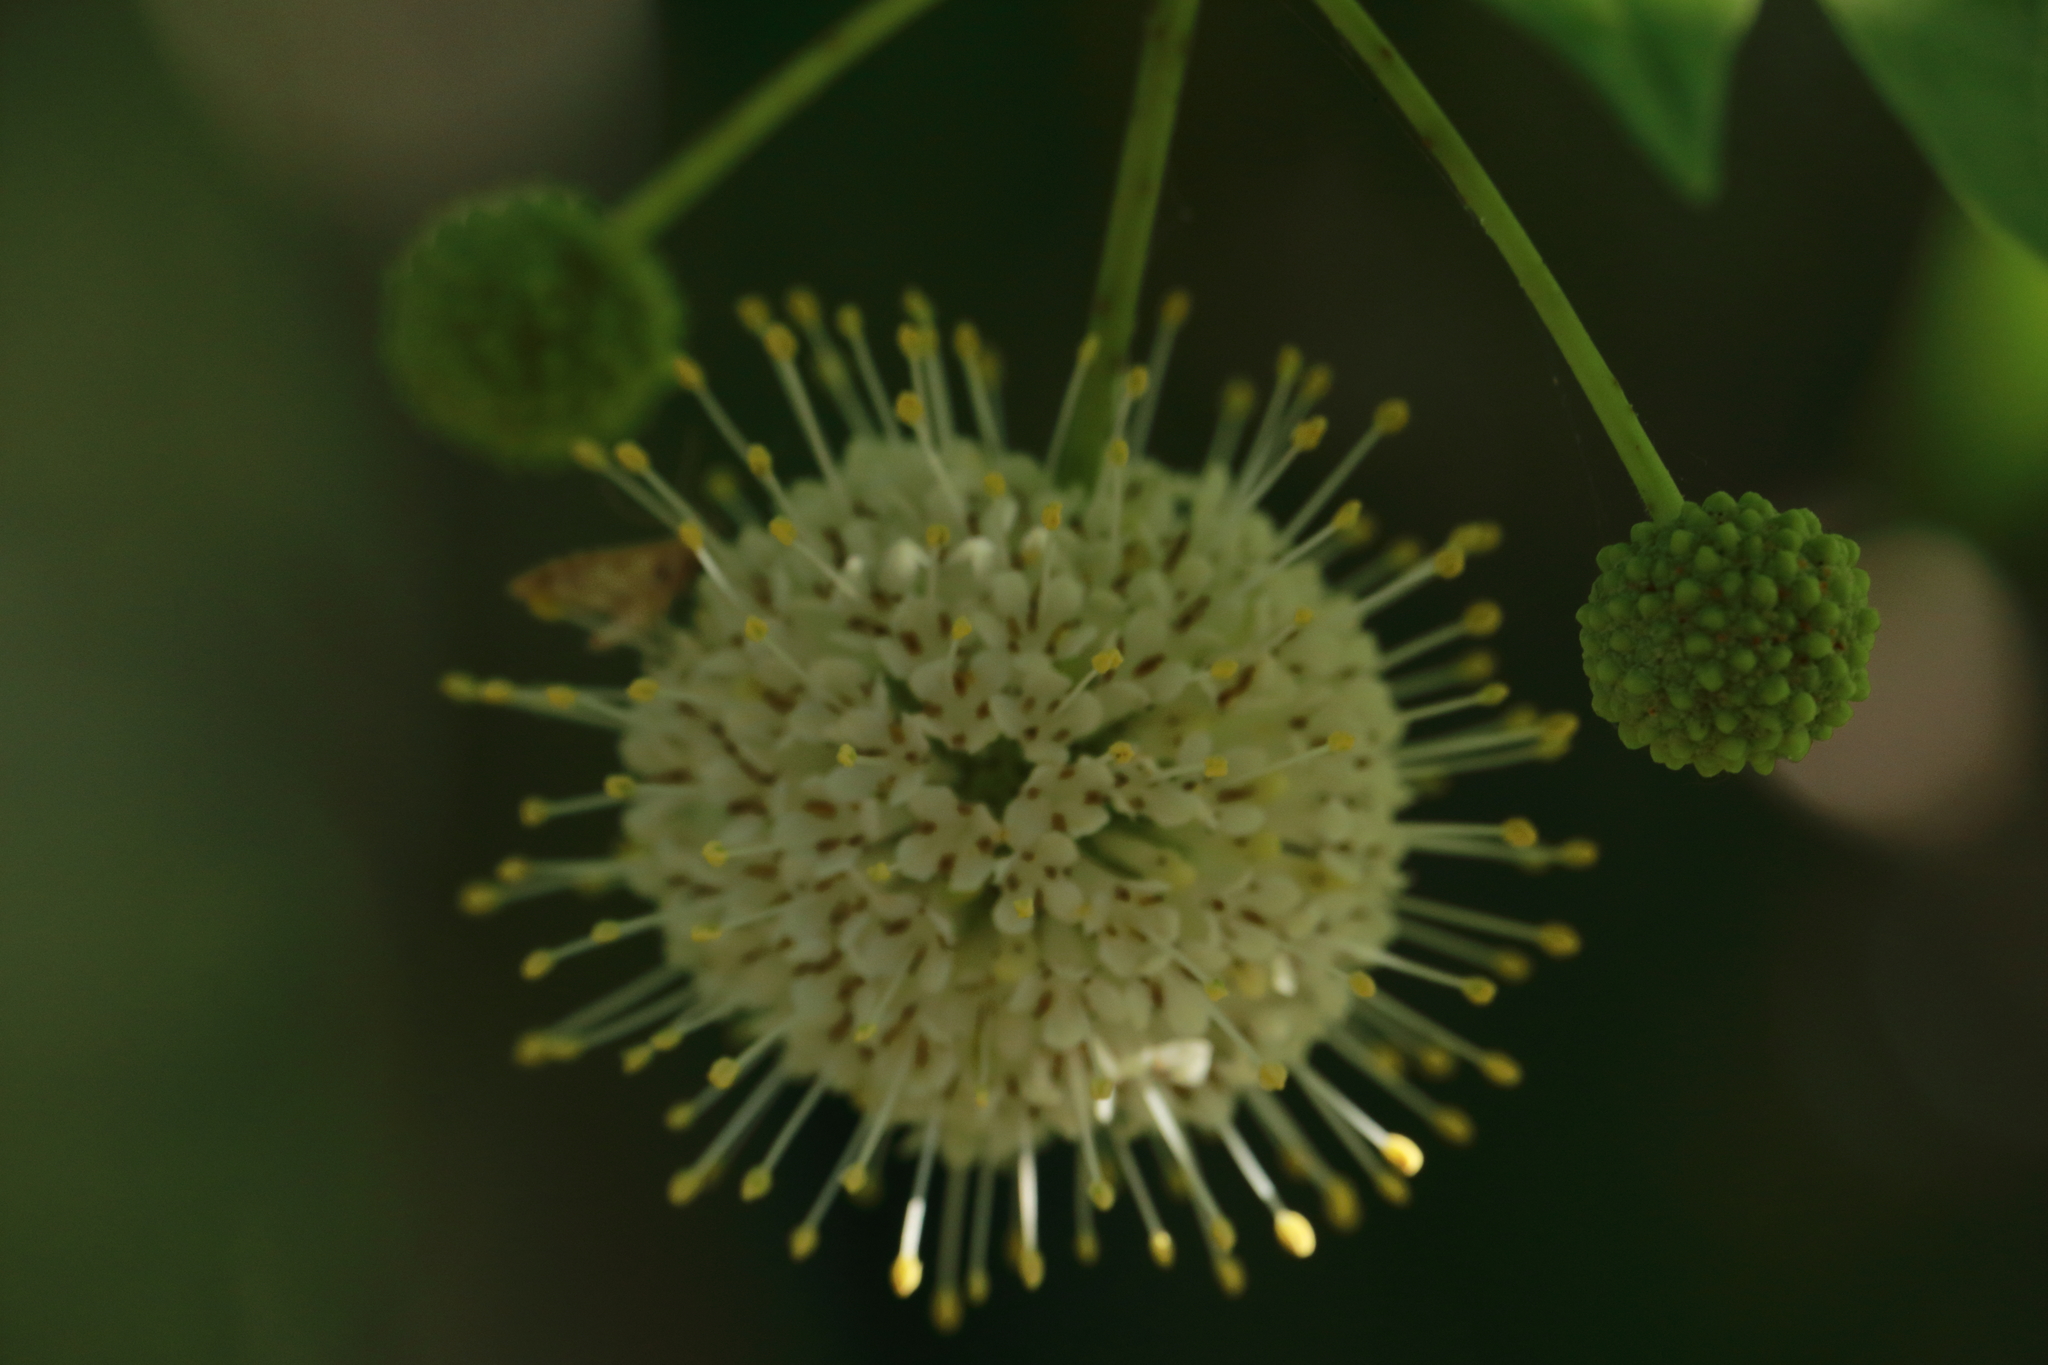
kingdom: Plantae
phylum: Tracheophyta
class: Magnoliopsida
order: Gentianales
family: Rubiaceae
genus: Cephalanthus
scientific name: Cephalanthus occidentalis
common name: Button-willow
